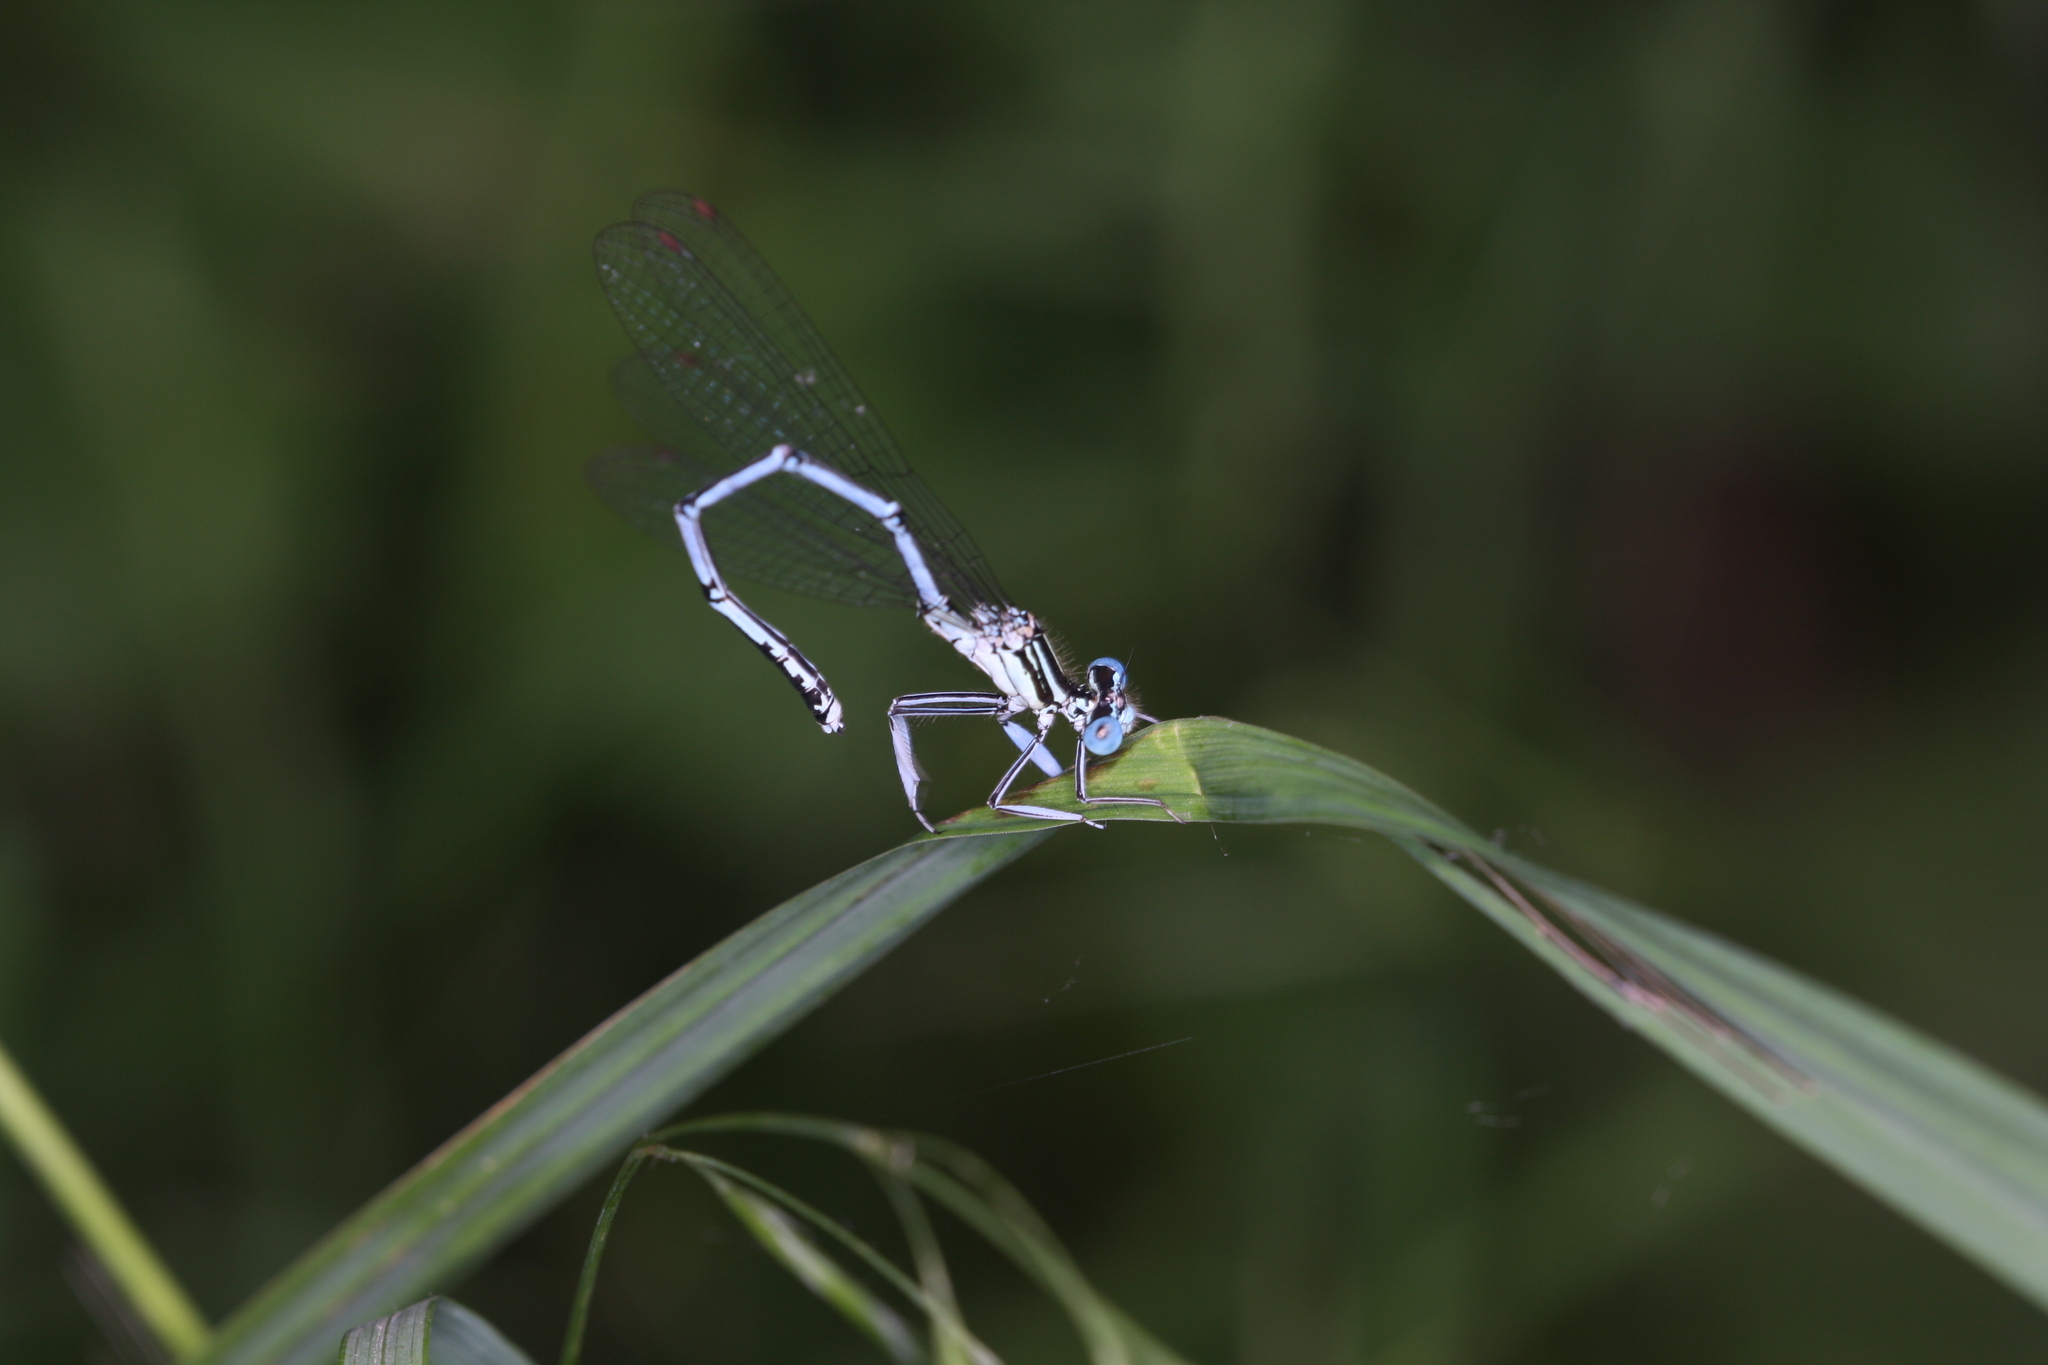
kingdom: Animalia
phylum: Arthropoda
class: Insecta
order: Odonata
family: Platycnemididae
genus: Platycnemis
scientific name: Platycnemis pennipes
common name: White-legged damselfly
